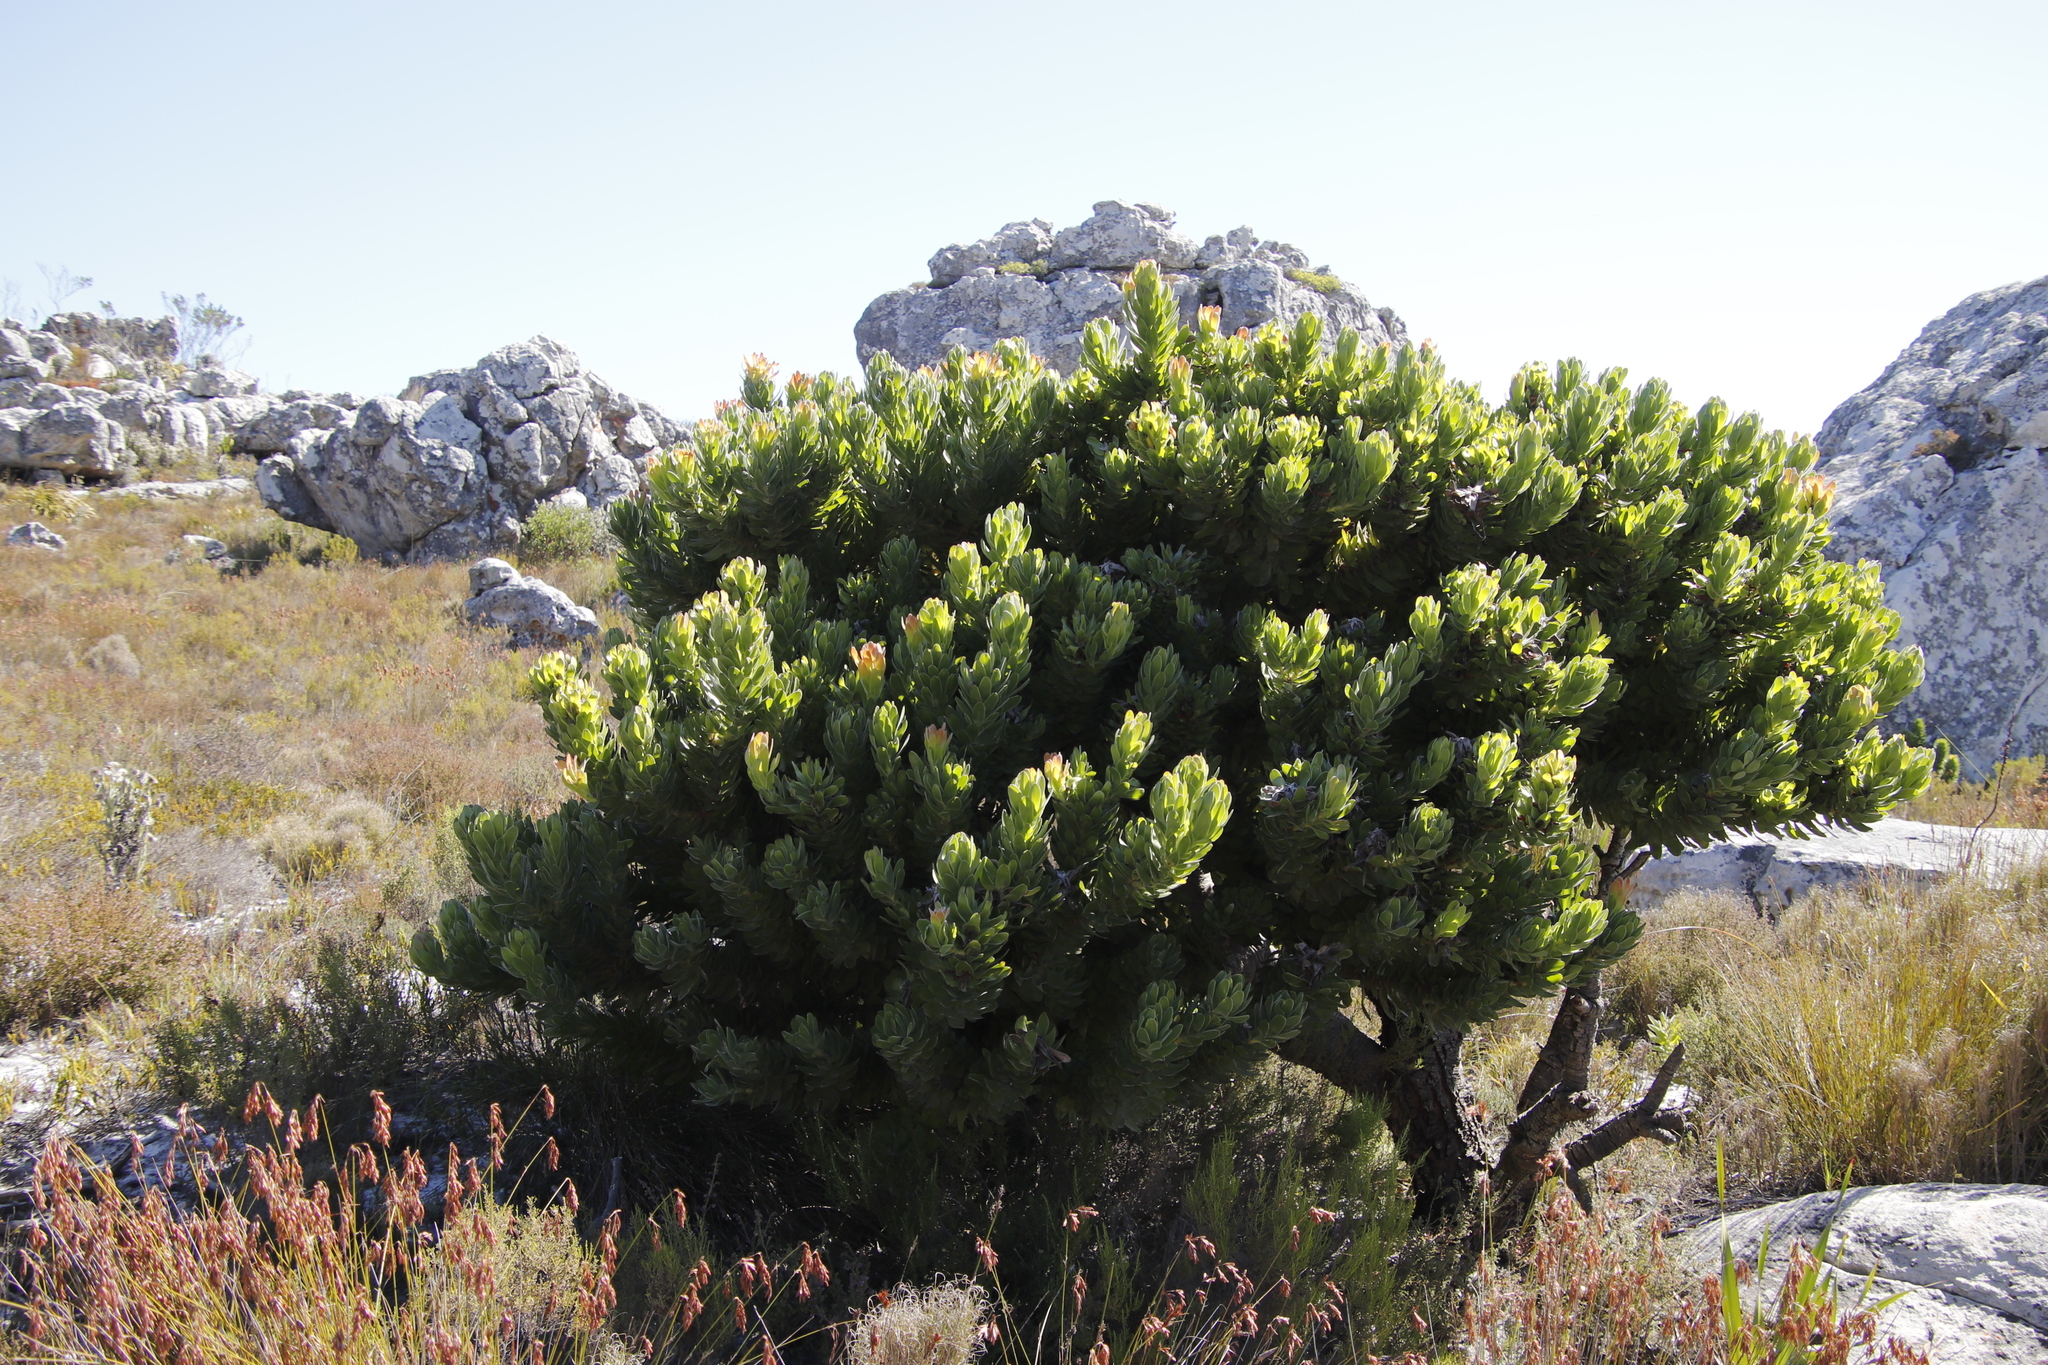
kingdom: Plantae
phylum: Tracheophyta
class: Magnoliopsida
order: Proteales
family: Proteaceae
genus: Mimetes
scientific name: Mimetes fimbriifolius
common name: Fringed bottlebrush
